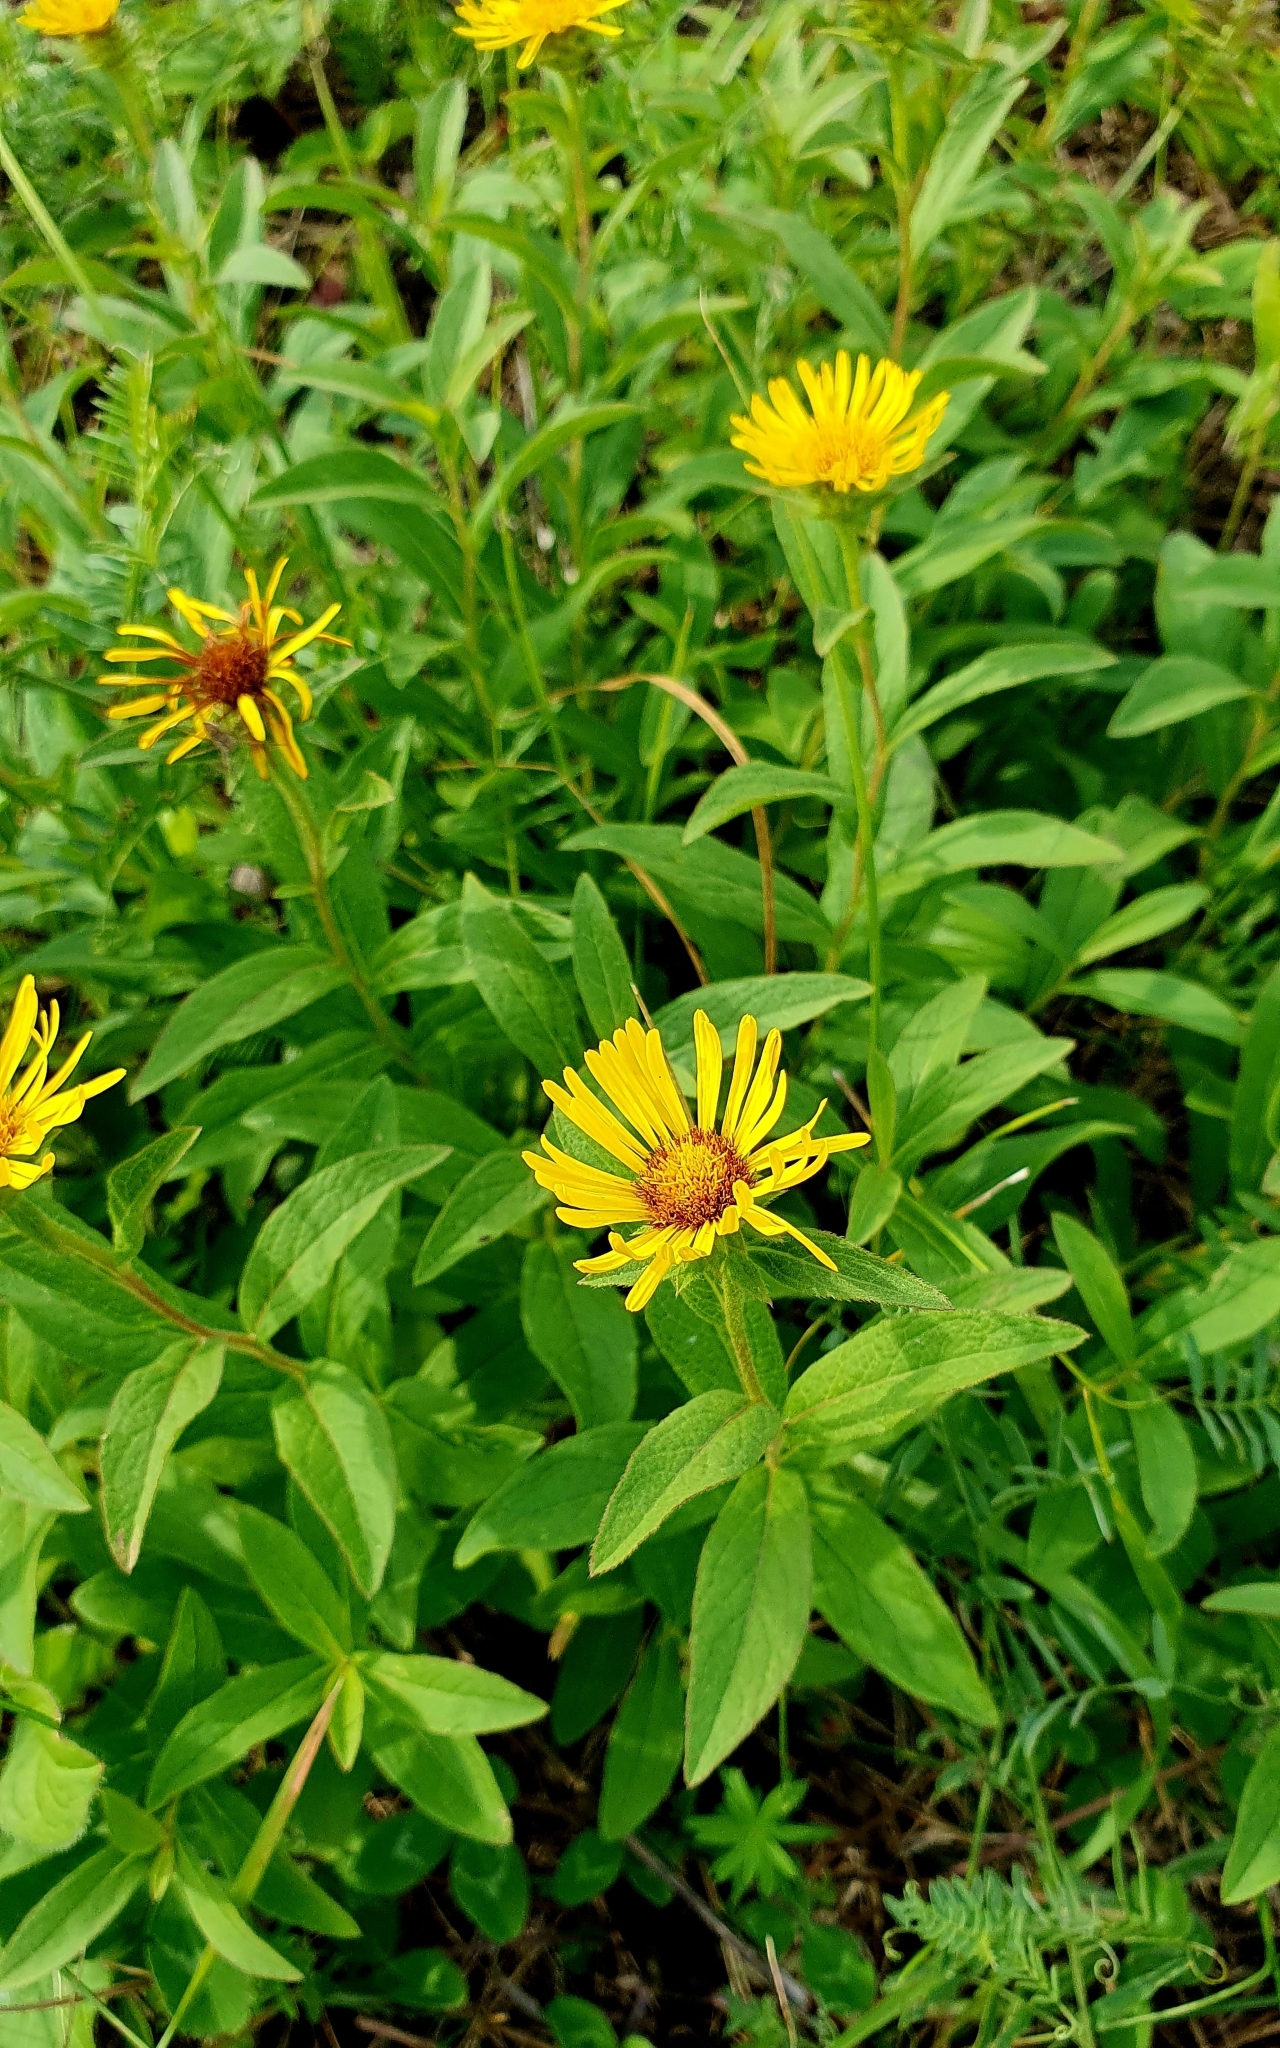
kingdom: Plantae
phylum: Tracheophyta
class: Magnoliopsida
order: Asterales
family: Asteraceae
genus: Pentanema
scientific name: Pentanema hirtum
